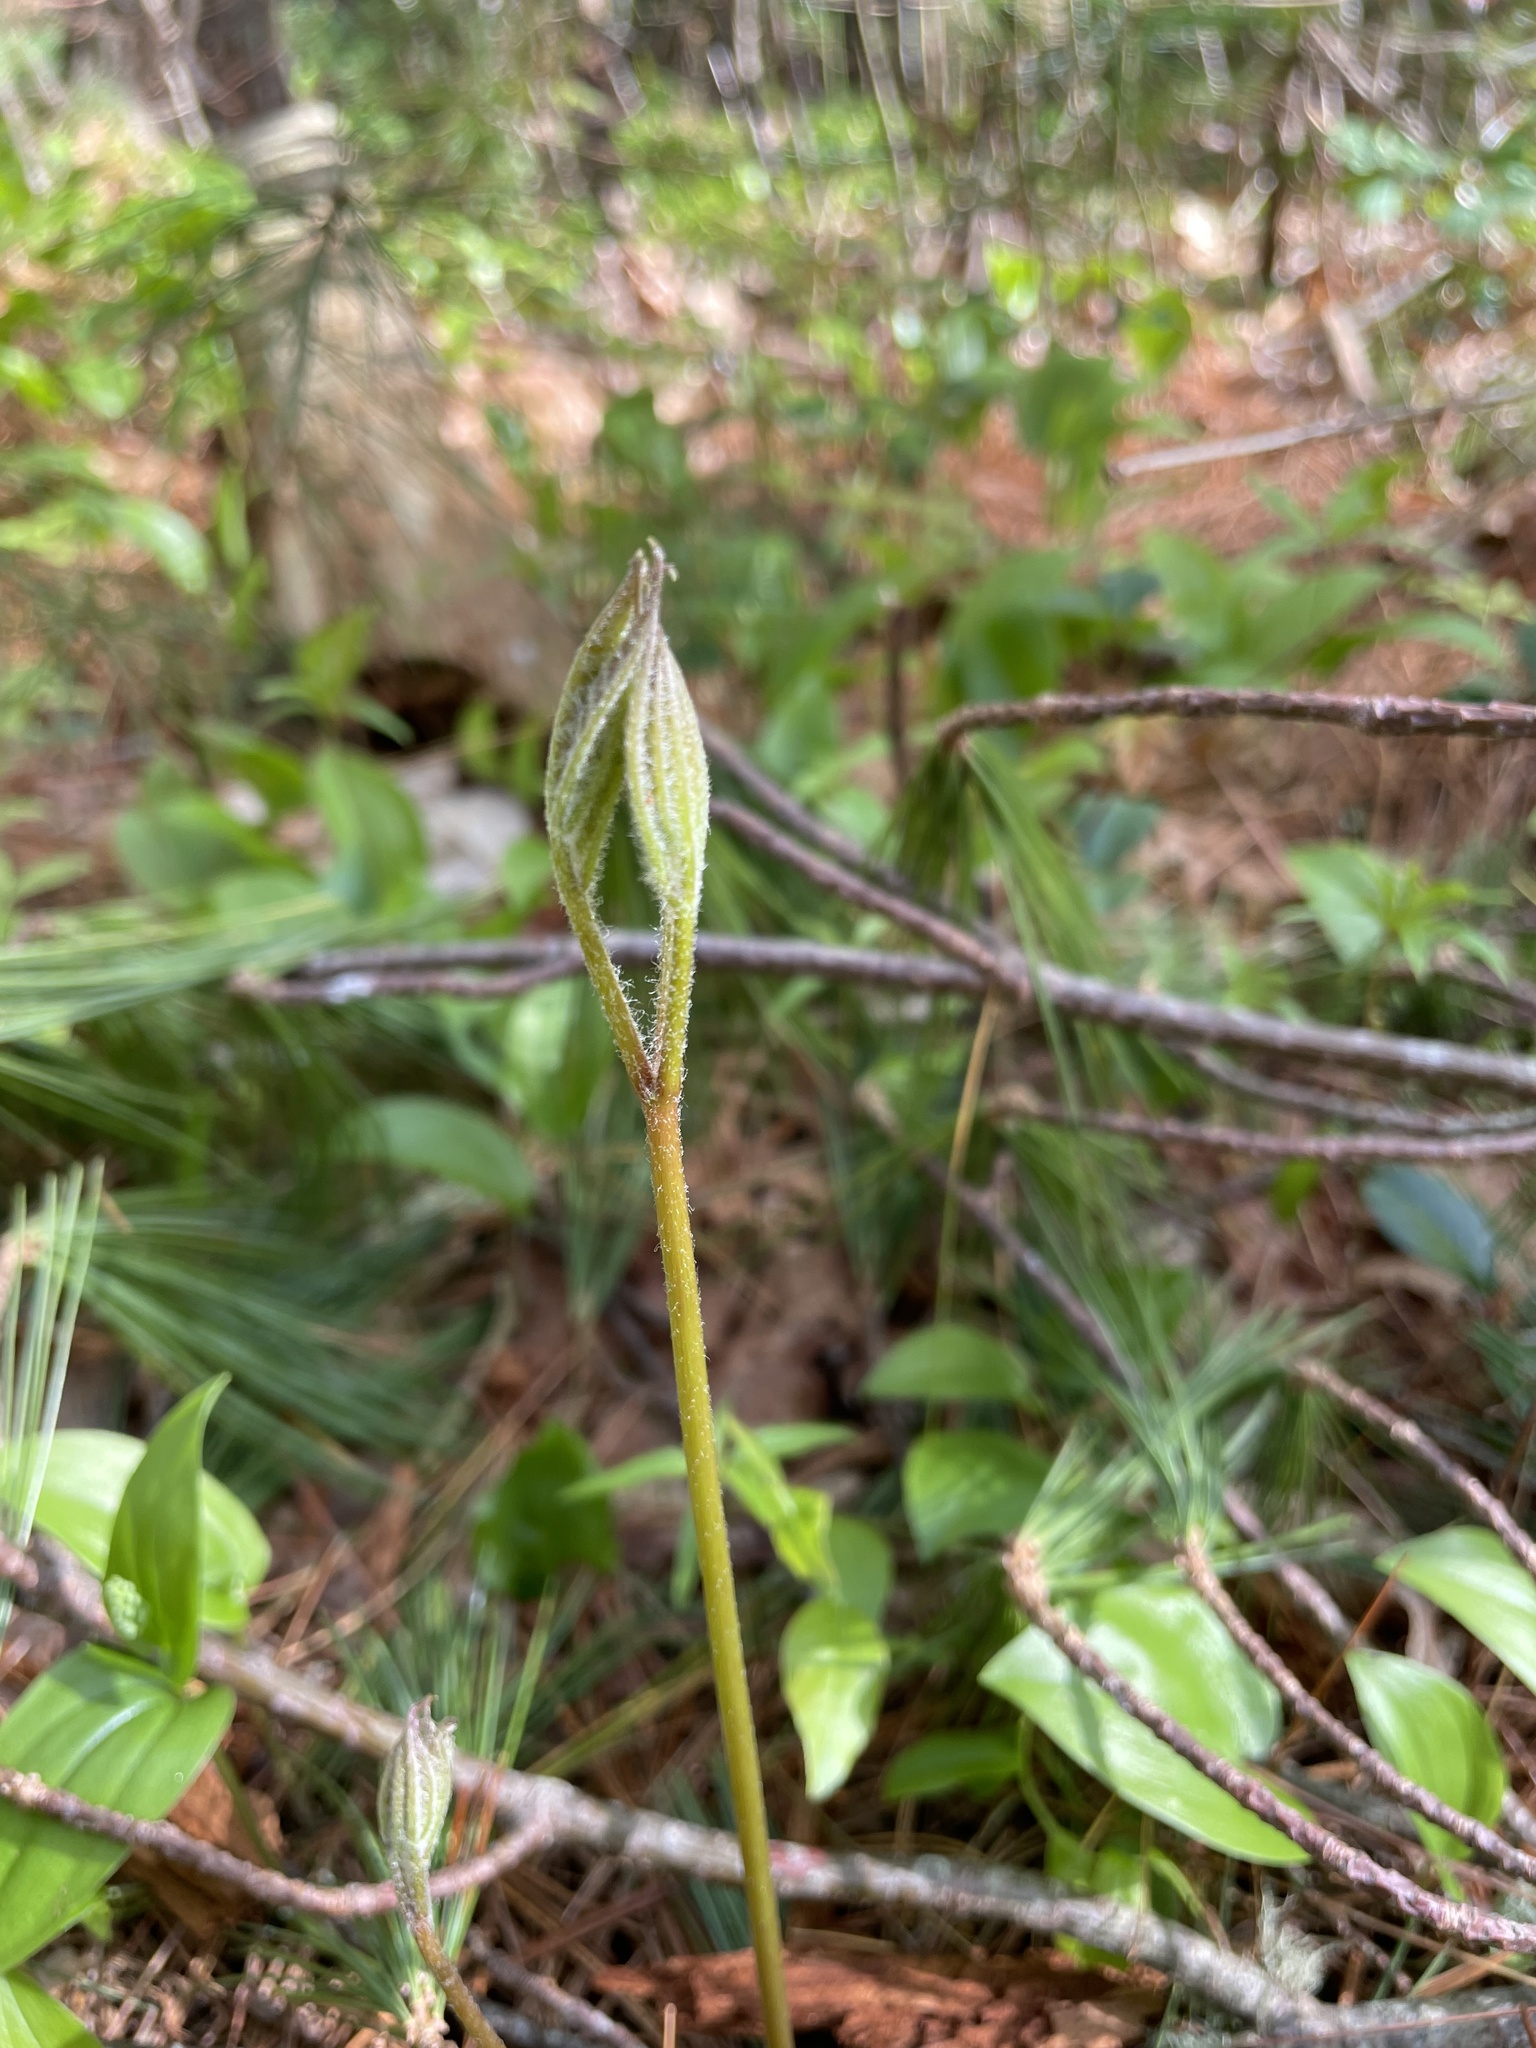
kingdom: Plantae
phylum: Tracheophyta
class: Magnoliopsida
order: Apiales
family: Araliaceae
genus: Aralia
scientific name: Aralia nudicaulis
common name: Wild sarsaparilla
